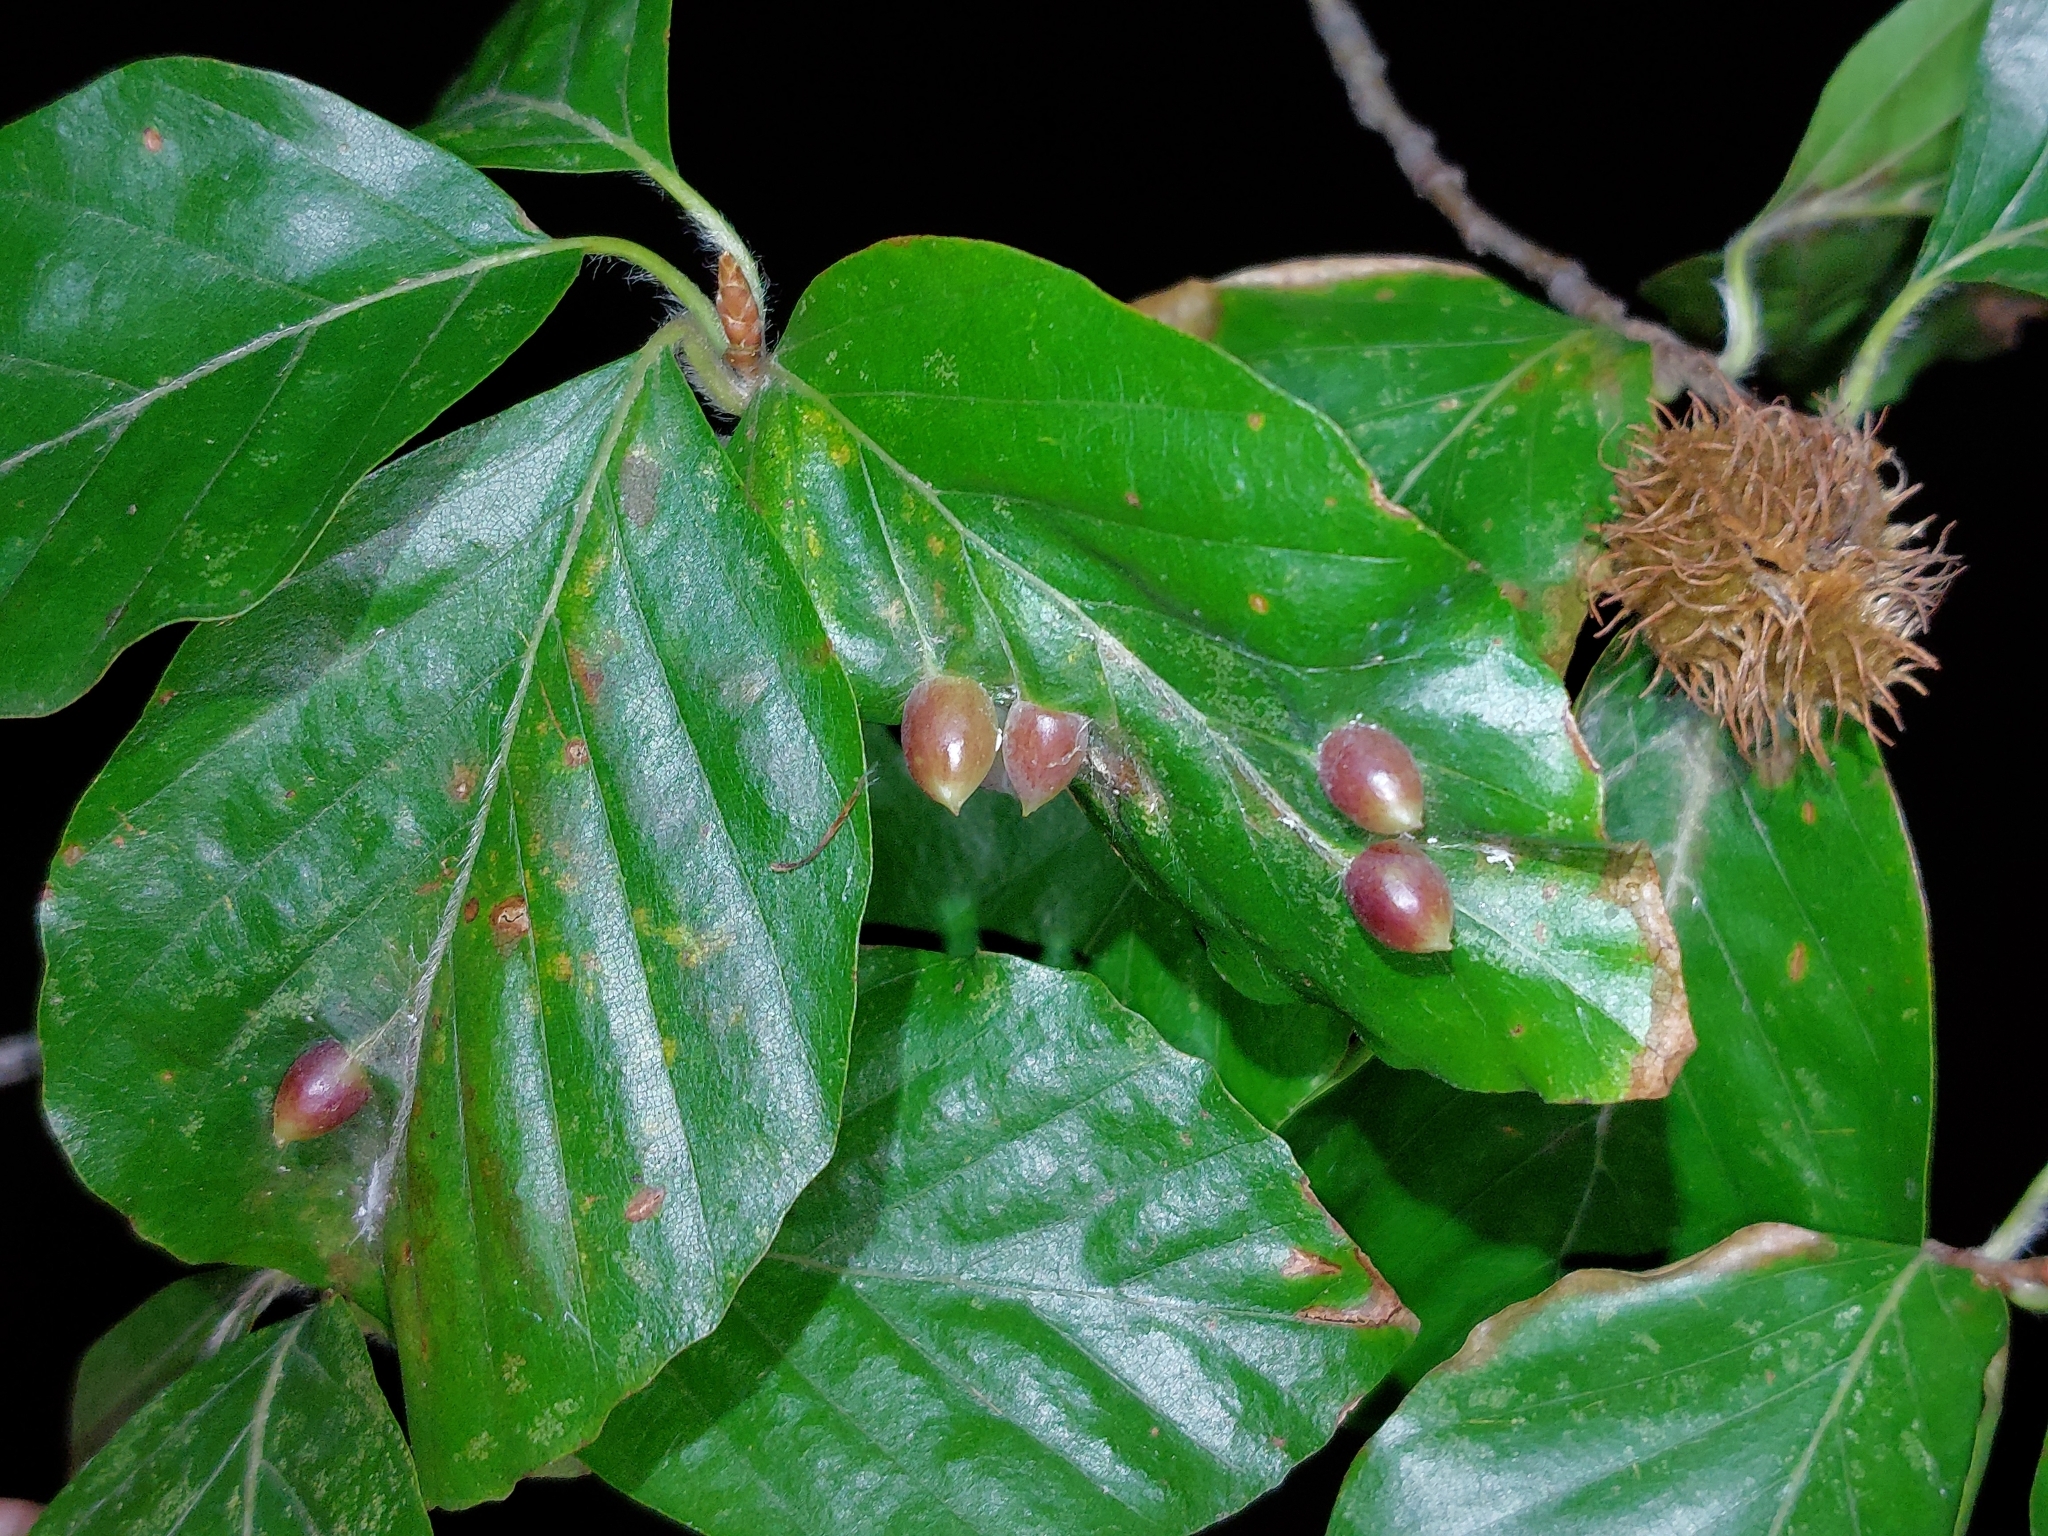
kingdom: Animalia
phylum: Arthropoda
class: Insecta
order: Diptera
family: Cecidomyiidae
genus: Mikiola
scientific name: Mikiola fagi
